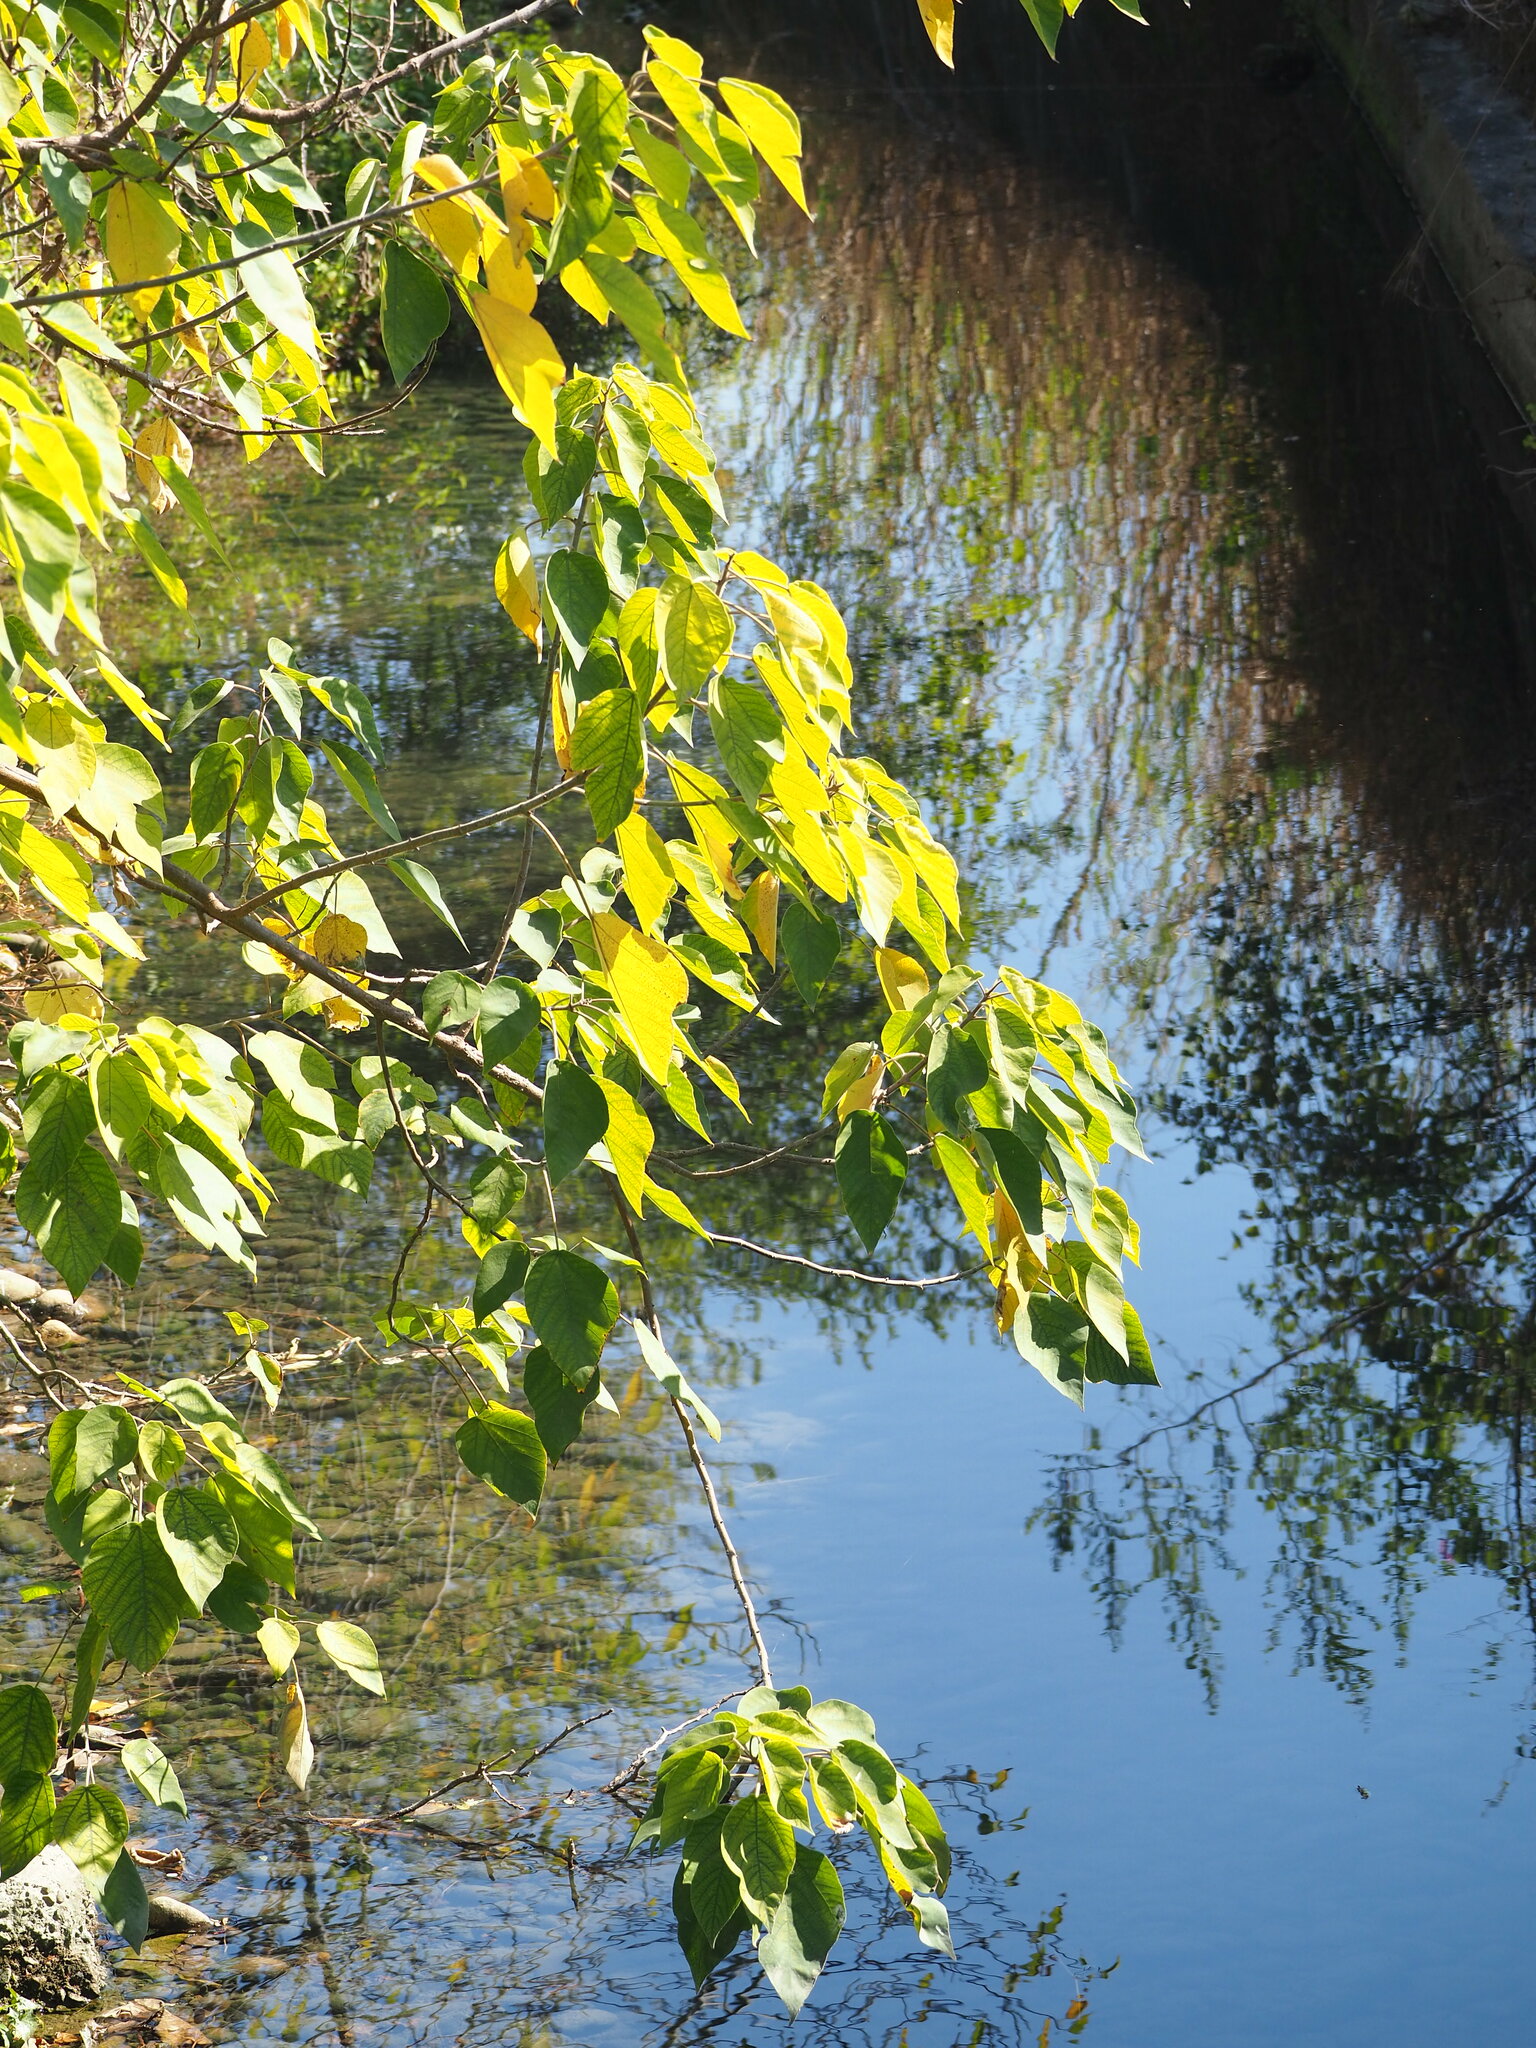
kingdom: Plantae
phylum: Tracheophyta
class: Magnoliopsida
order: Rosales
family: Moraceae
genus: Broussonetia
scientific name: Broussonetia papyrifera
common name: Paper mulberry
